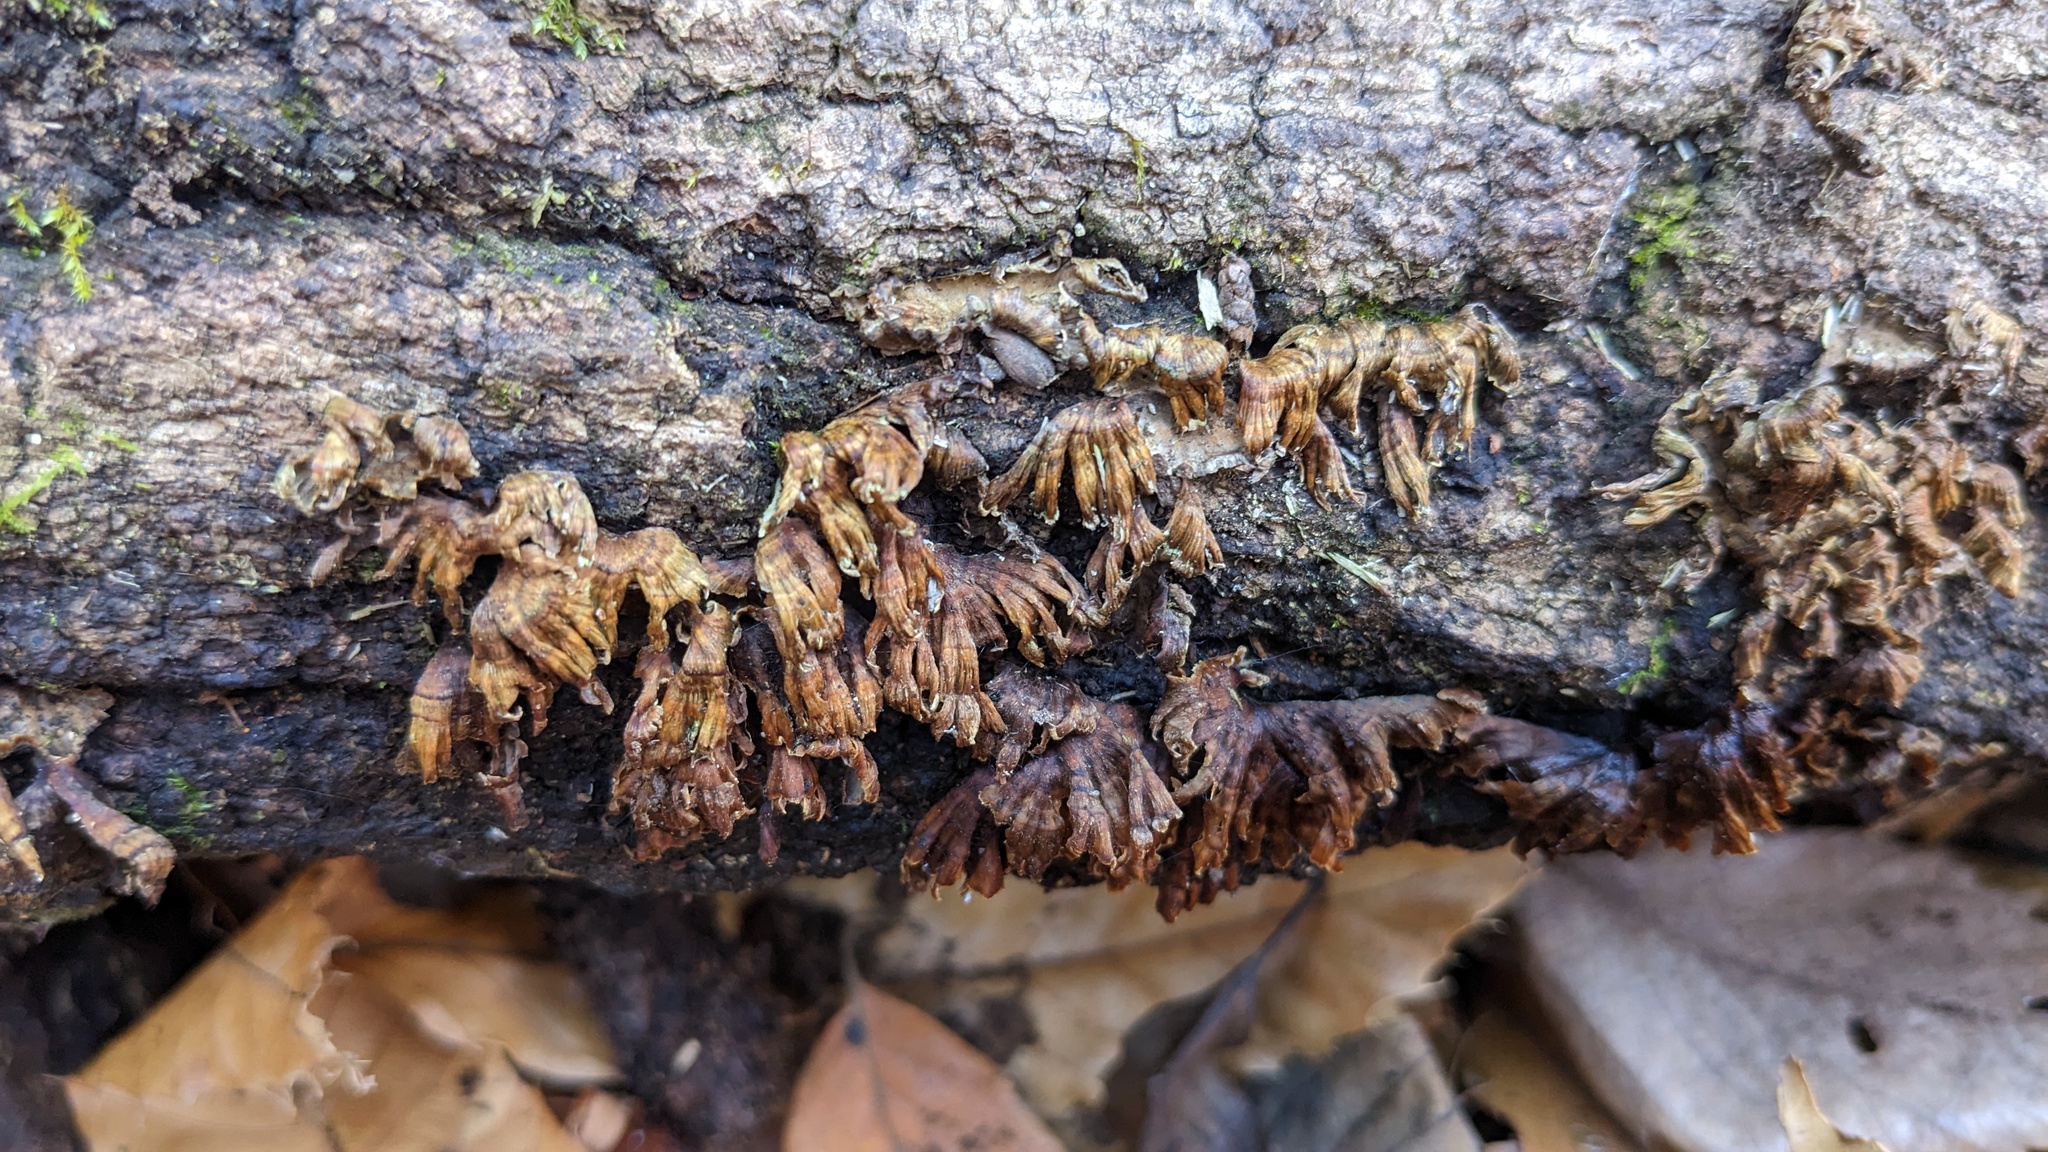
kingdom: Fungi
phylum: Basidiomycota
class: Agaricomycetes
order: Russulales
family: Stereaceae
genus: Xylobolus
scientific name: Xylobolus spectabilis
